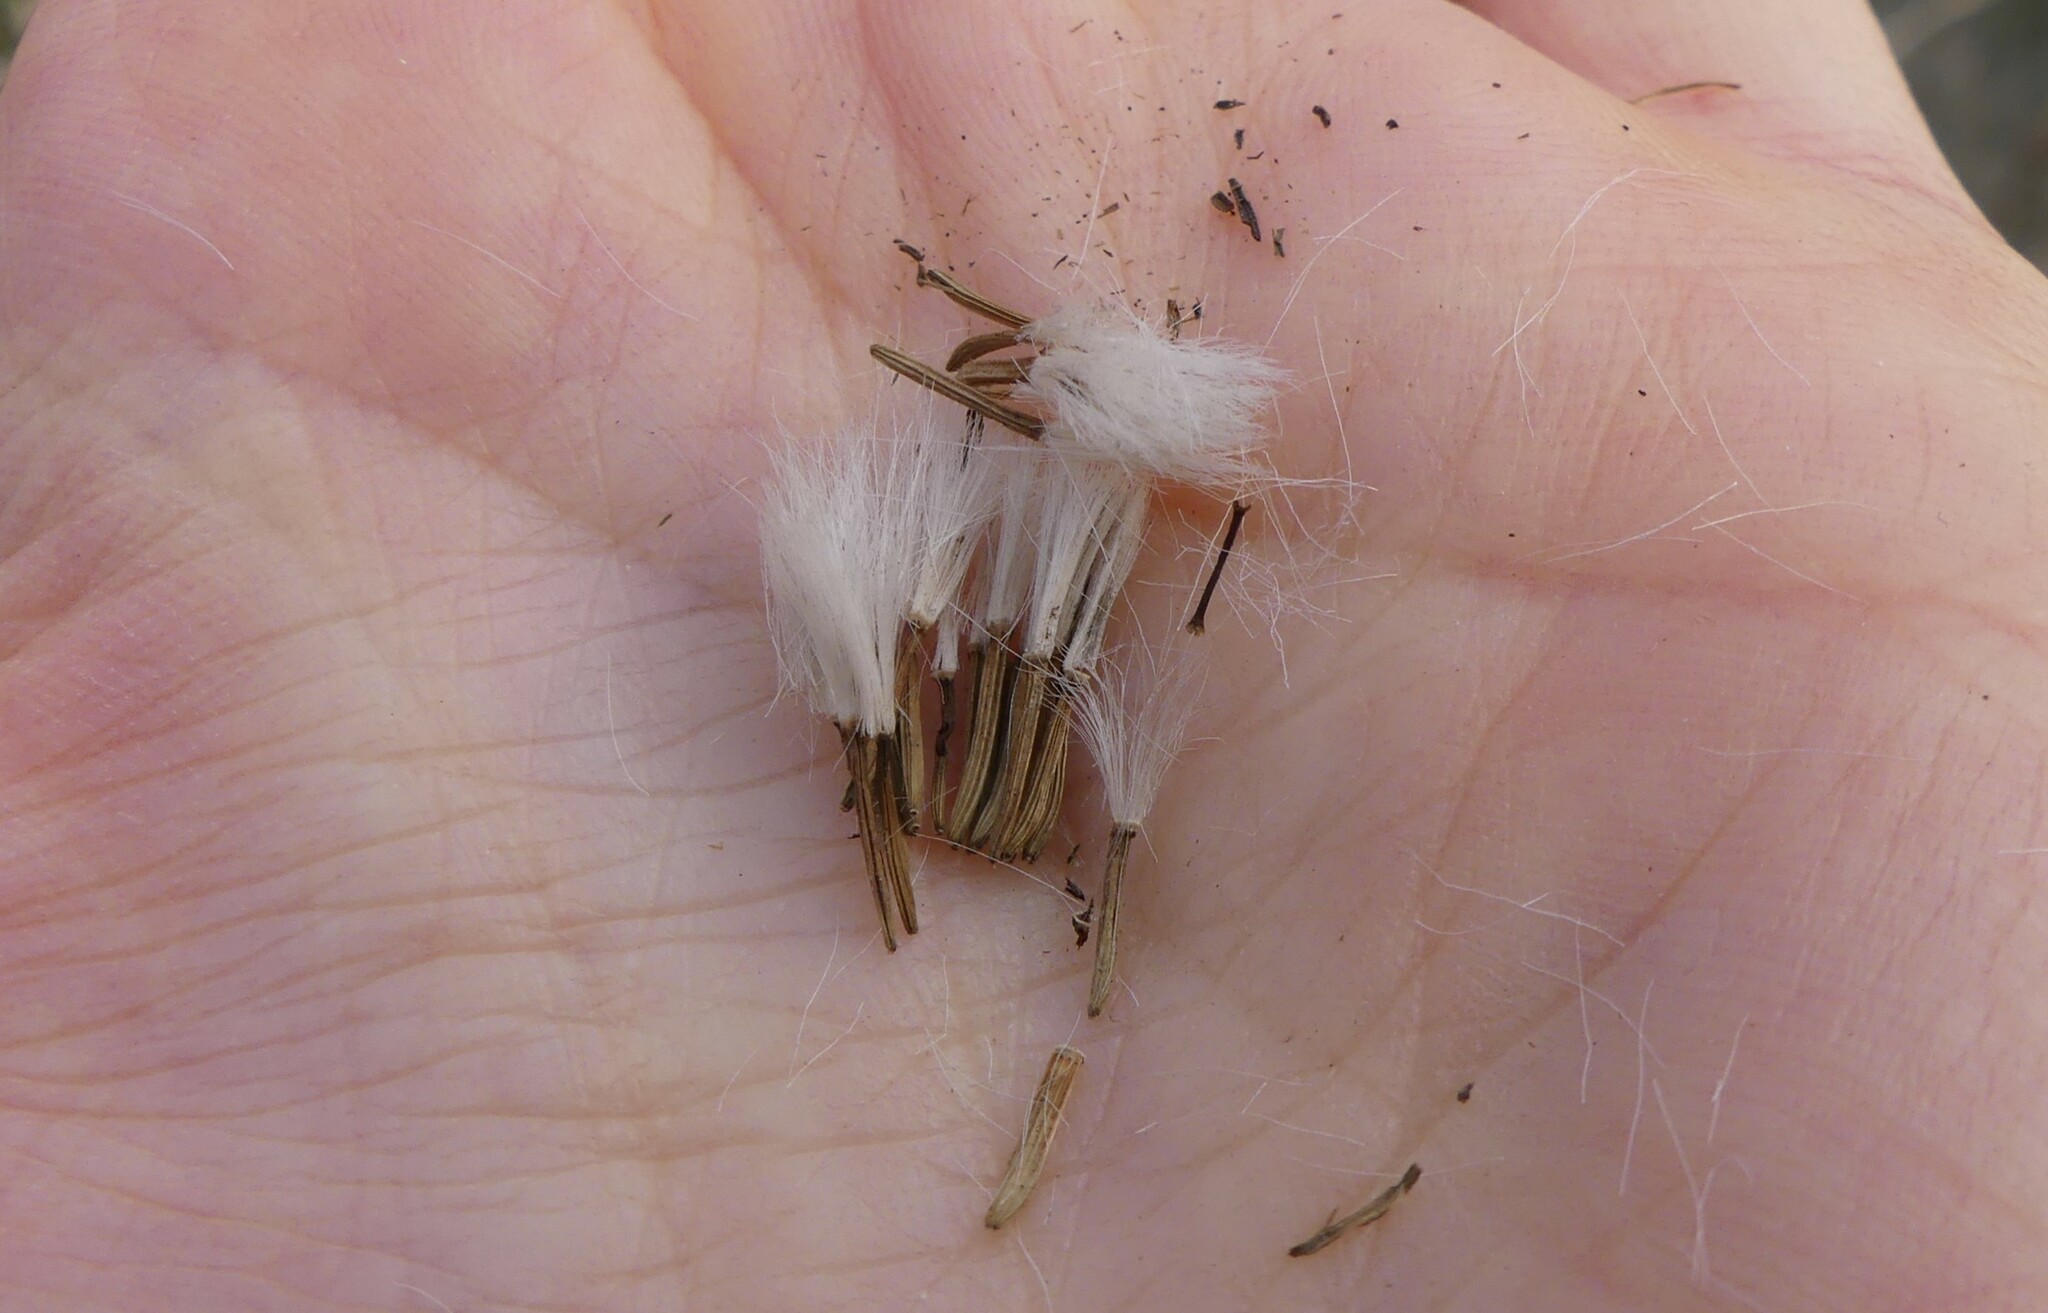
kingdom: Plantae
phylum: Tracheophyta
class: Magnoliopsida
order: Asterales
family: Asteraceae
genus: Hasteola
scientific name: Hasteola suaveolens
